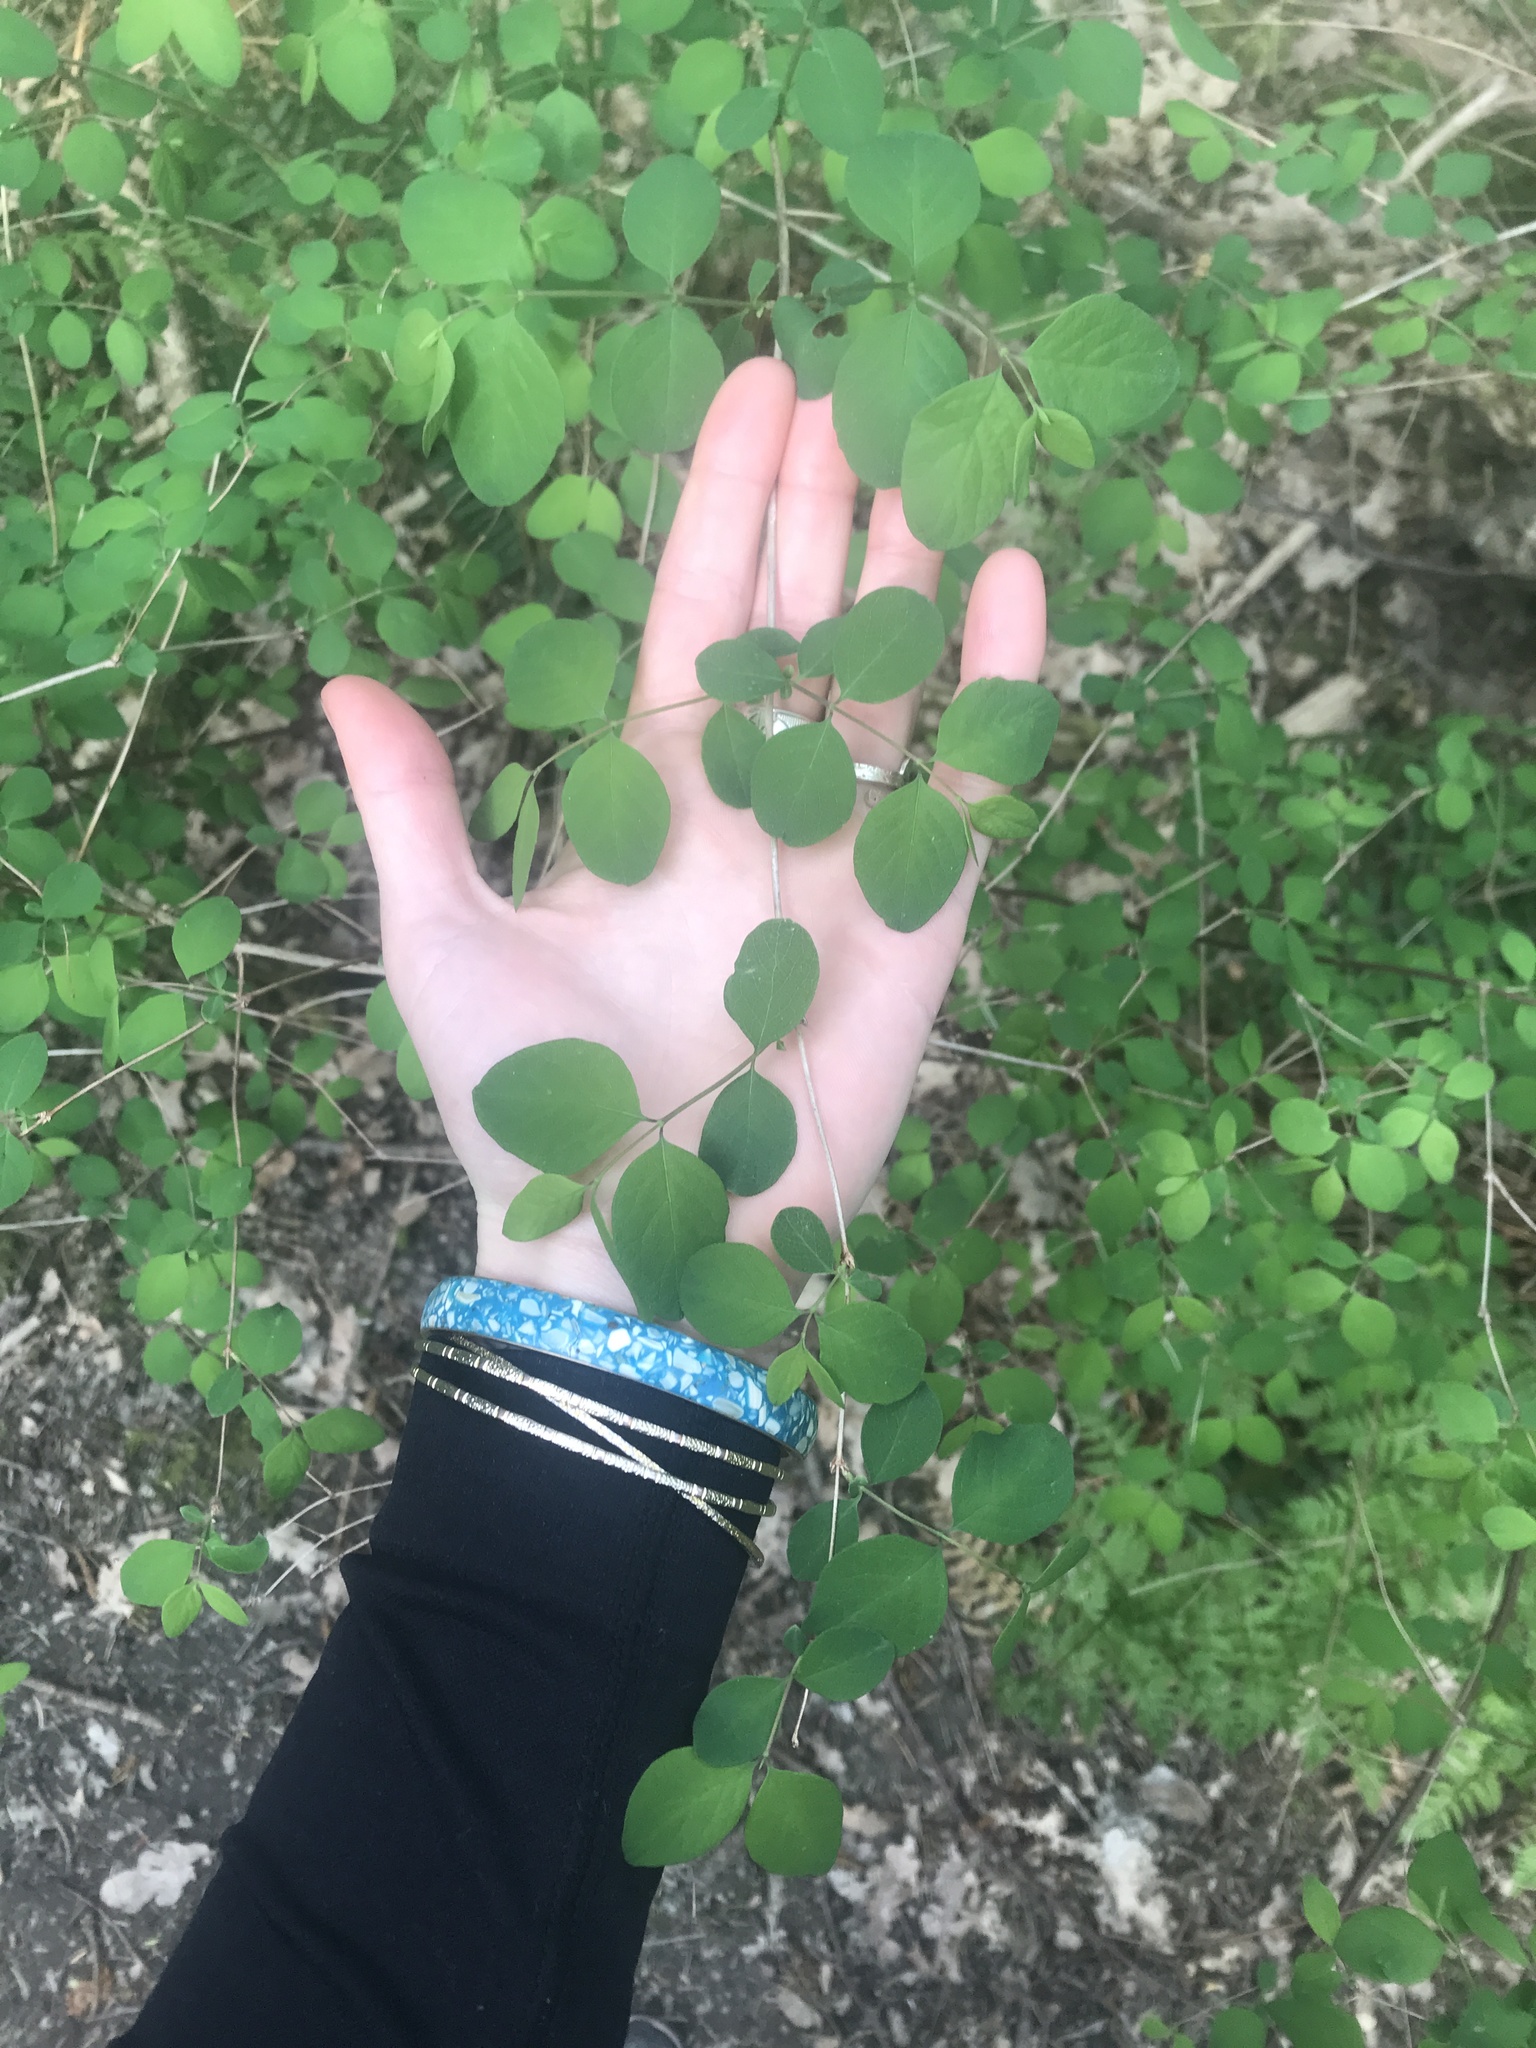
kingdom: Plantae
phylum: Tracheophyta
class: Magnoliopsida
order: Dipsacales
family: Caprifoliaceae
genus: Symphoricarpos
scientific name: Symphoricarpos albus
